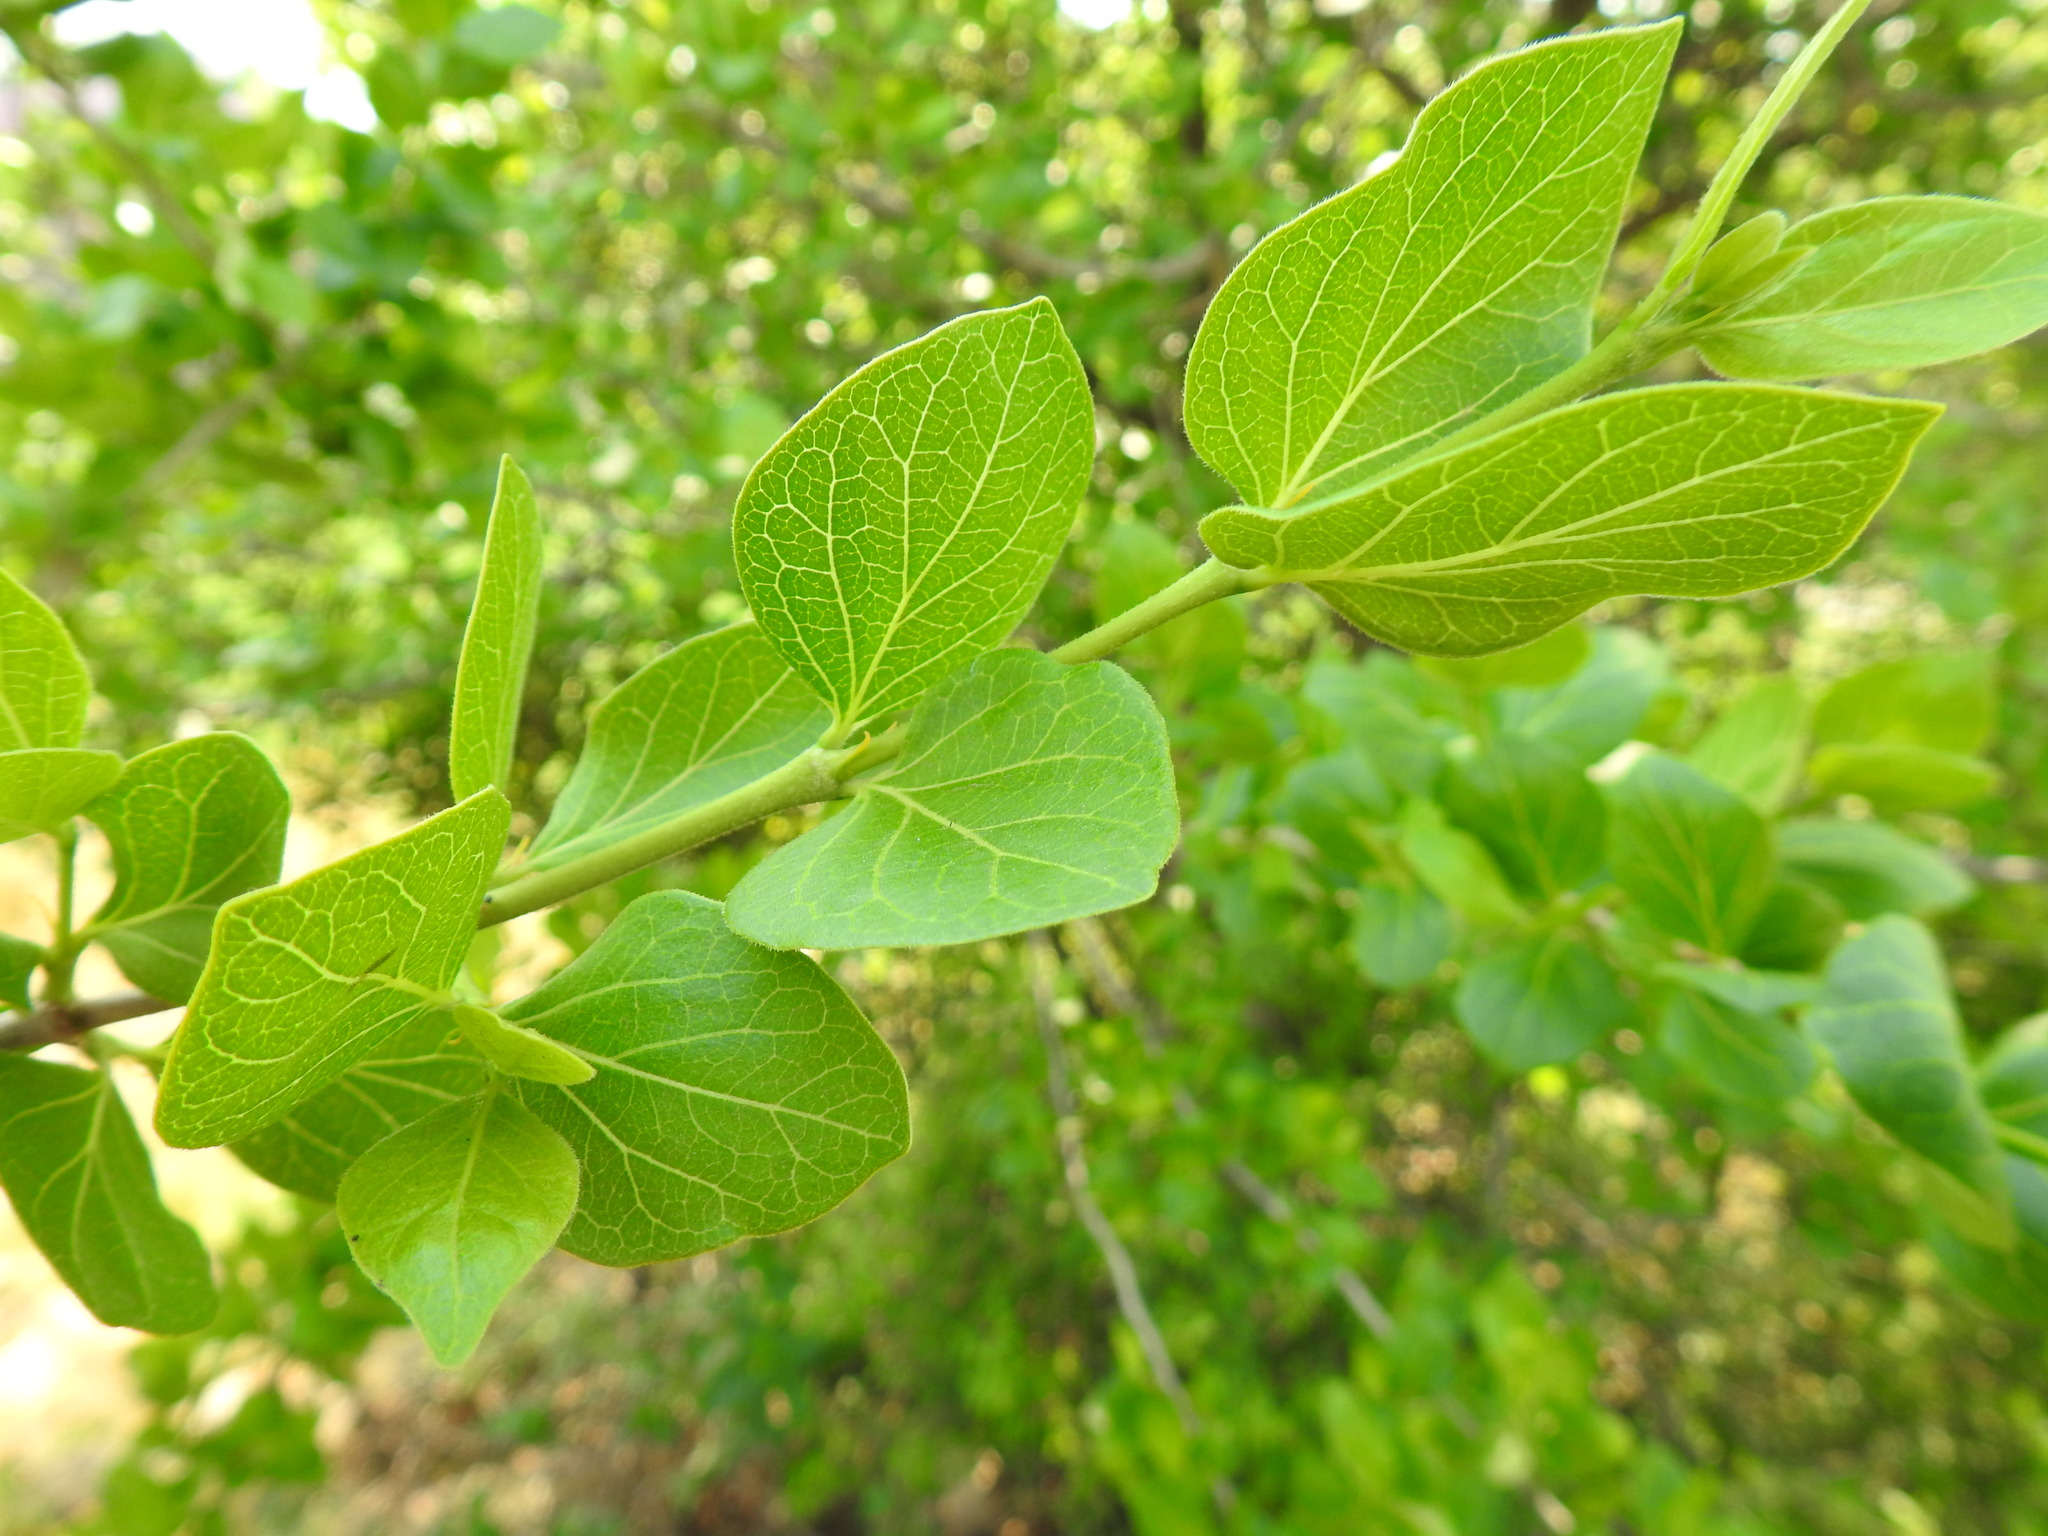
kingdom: Plantae
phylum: Tracheophyta
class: Magnoliopsida
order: Gentianales
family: Rubiaceae
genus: Afrocanthium
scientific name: Afrocanthium mundianum
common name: Rock-alder
